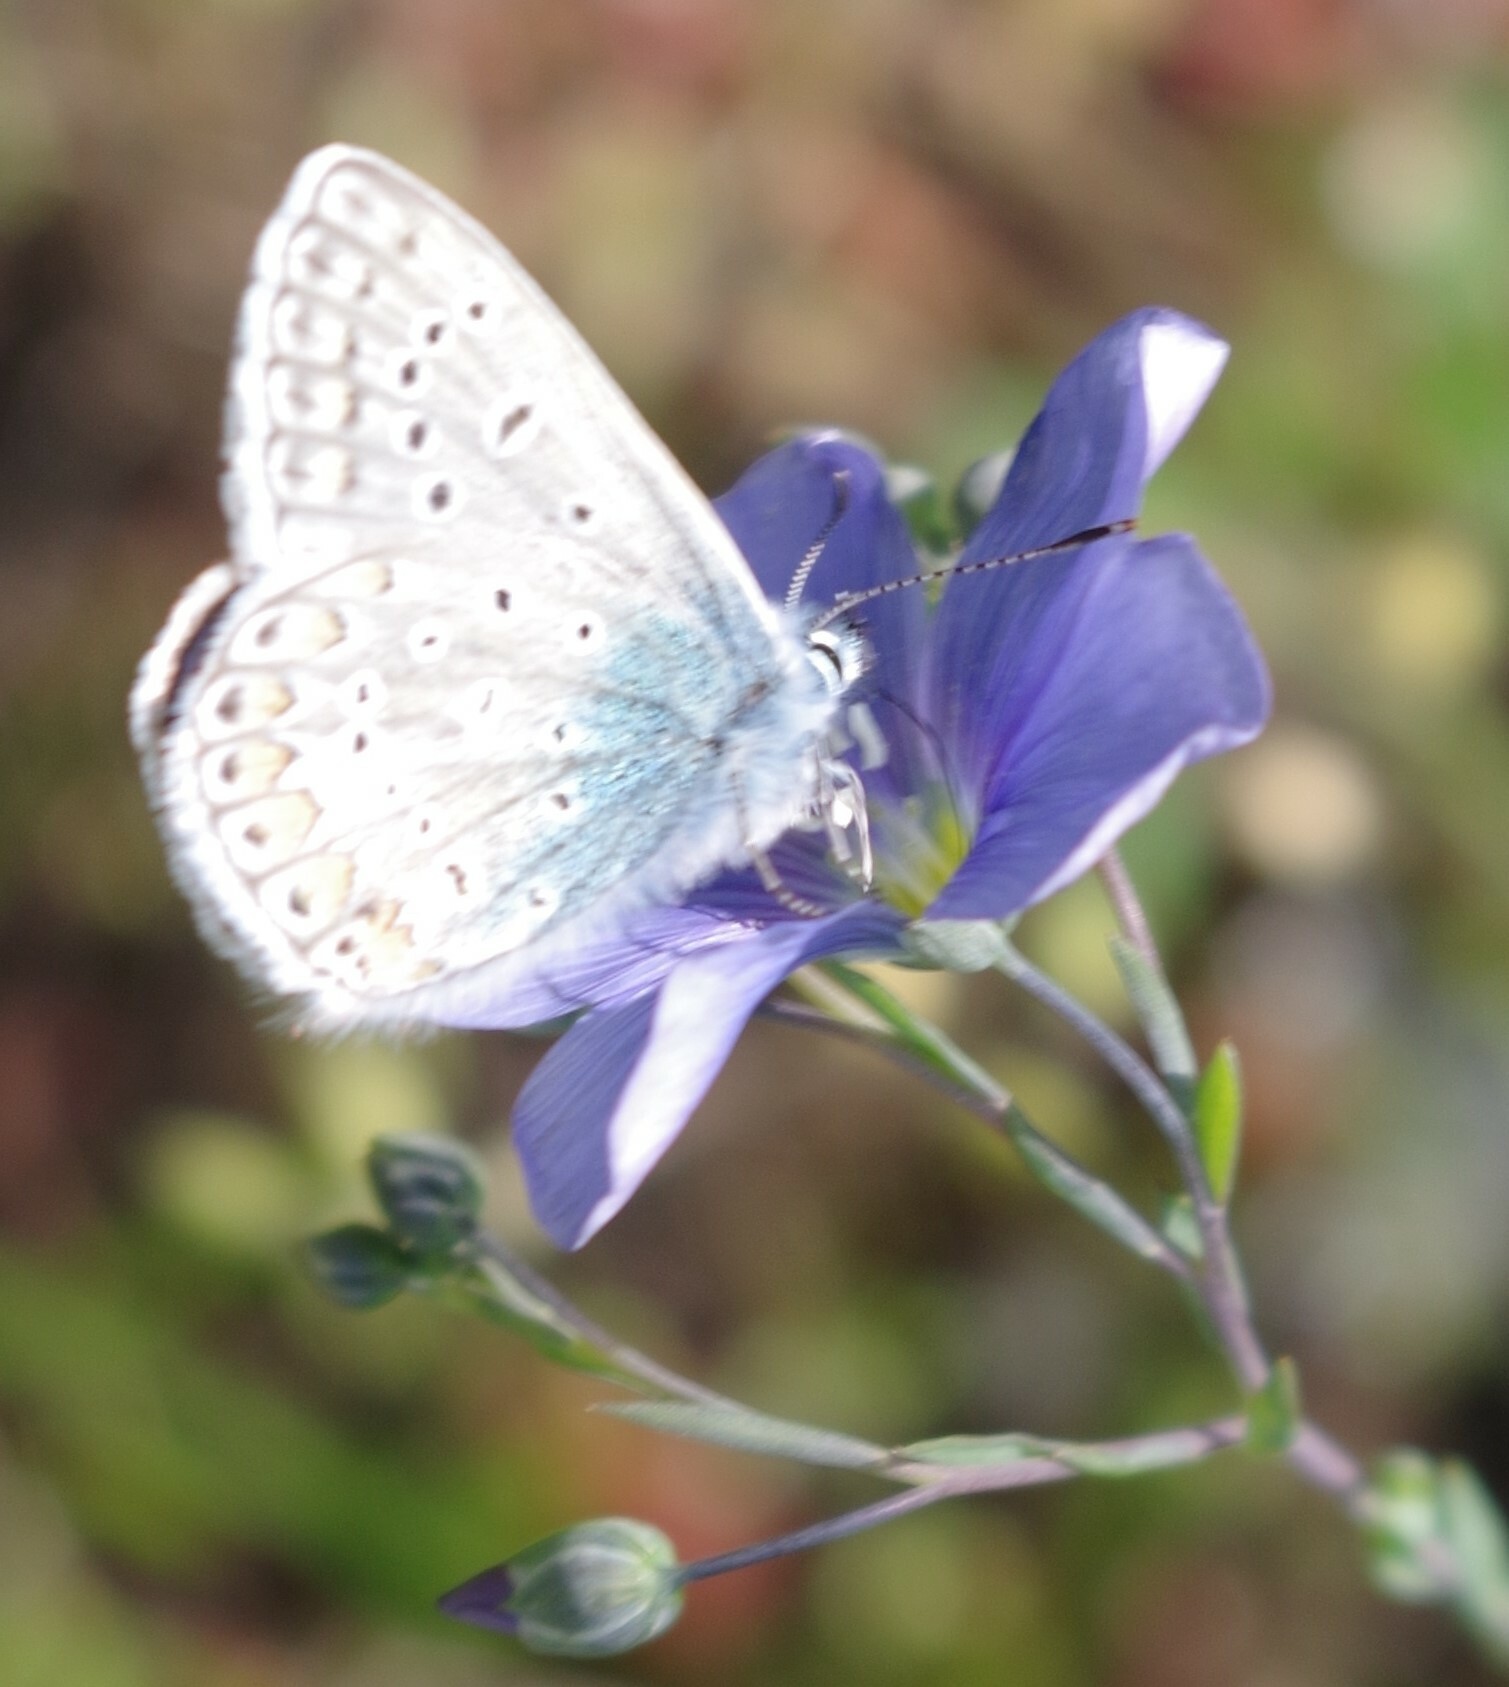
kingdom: Animalia
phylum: Arthropoda
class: Insecta
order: Lepidoptera
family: Lycaenidae
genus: Polyommatus
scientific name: Polyommatus icarus
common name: Common blue
